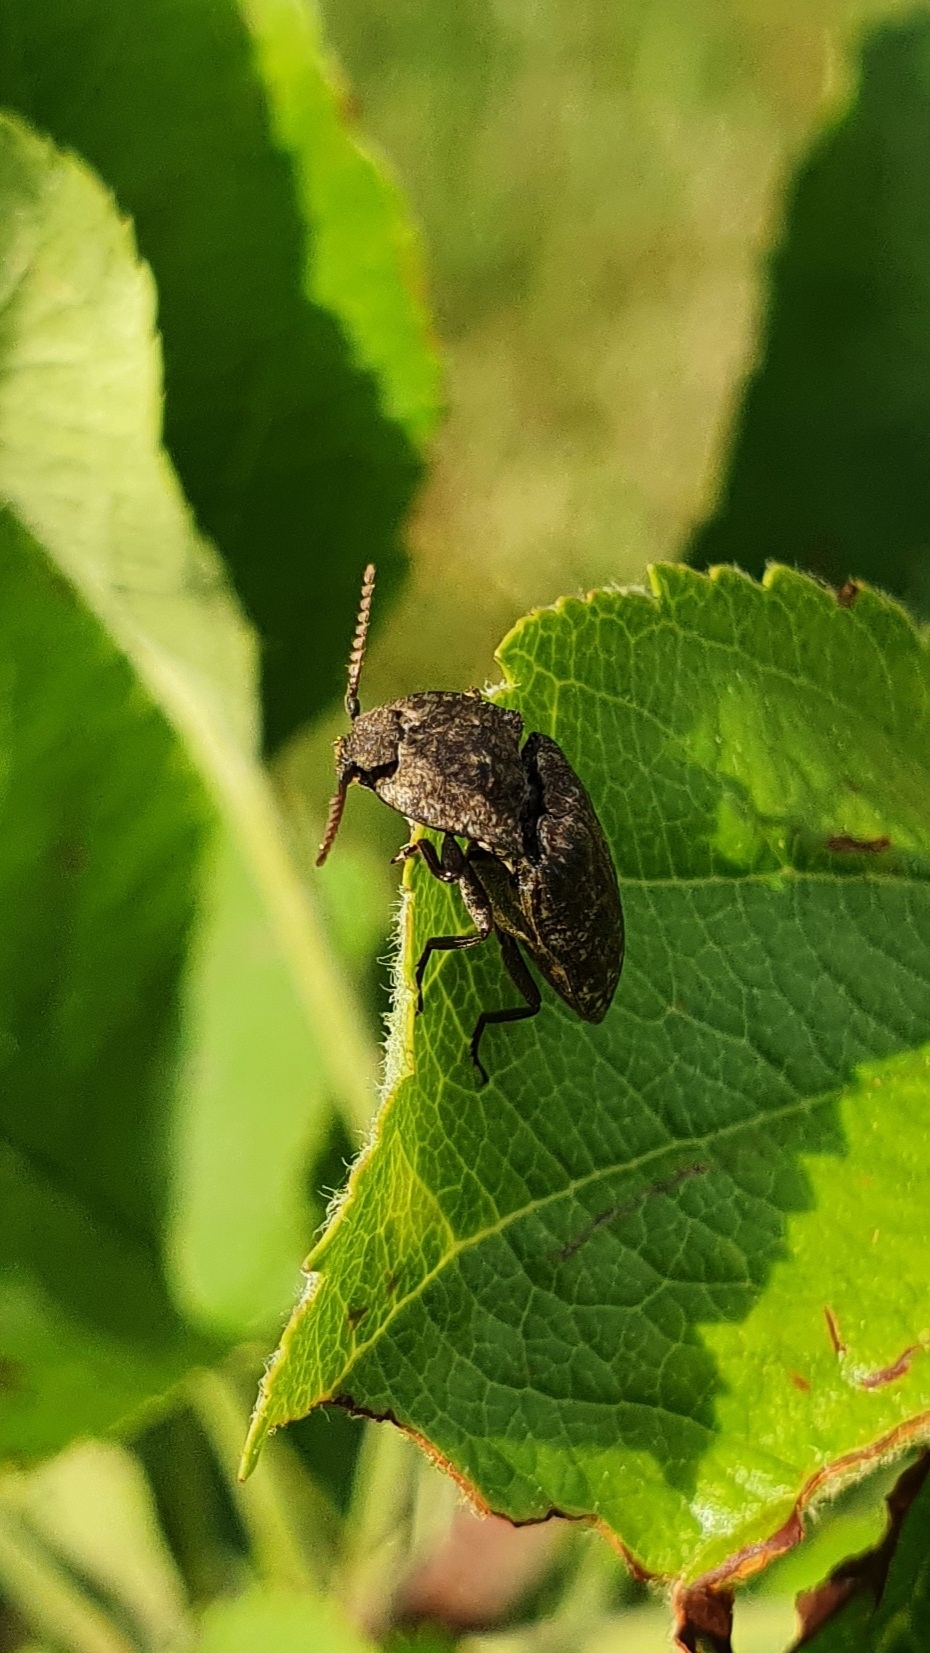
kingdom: Animalia
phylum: Arthropoda
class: Insecta
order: Coleoptera
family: Elateridae
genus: Agrypnus
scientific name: Agrypnus murinus
